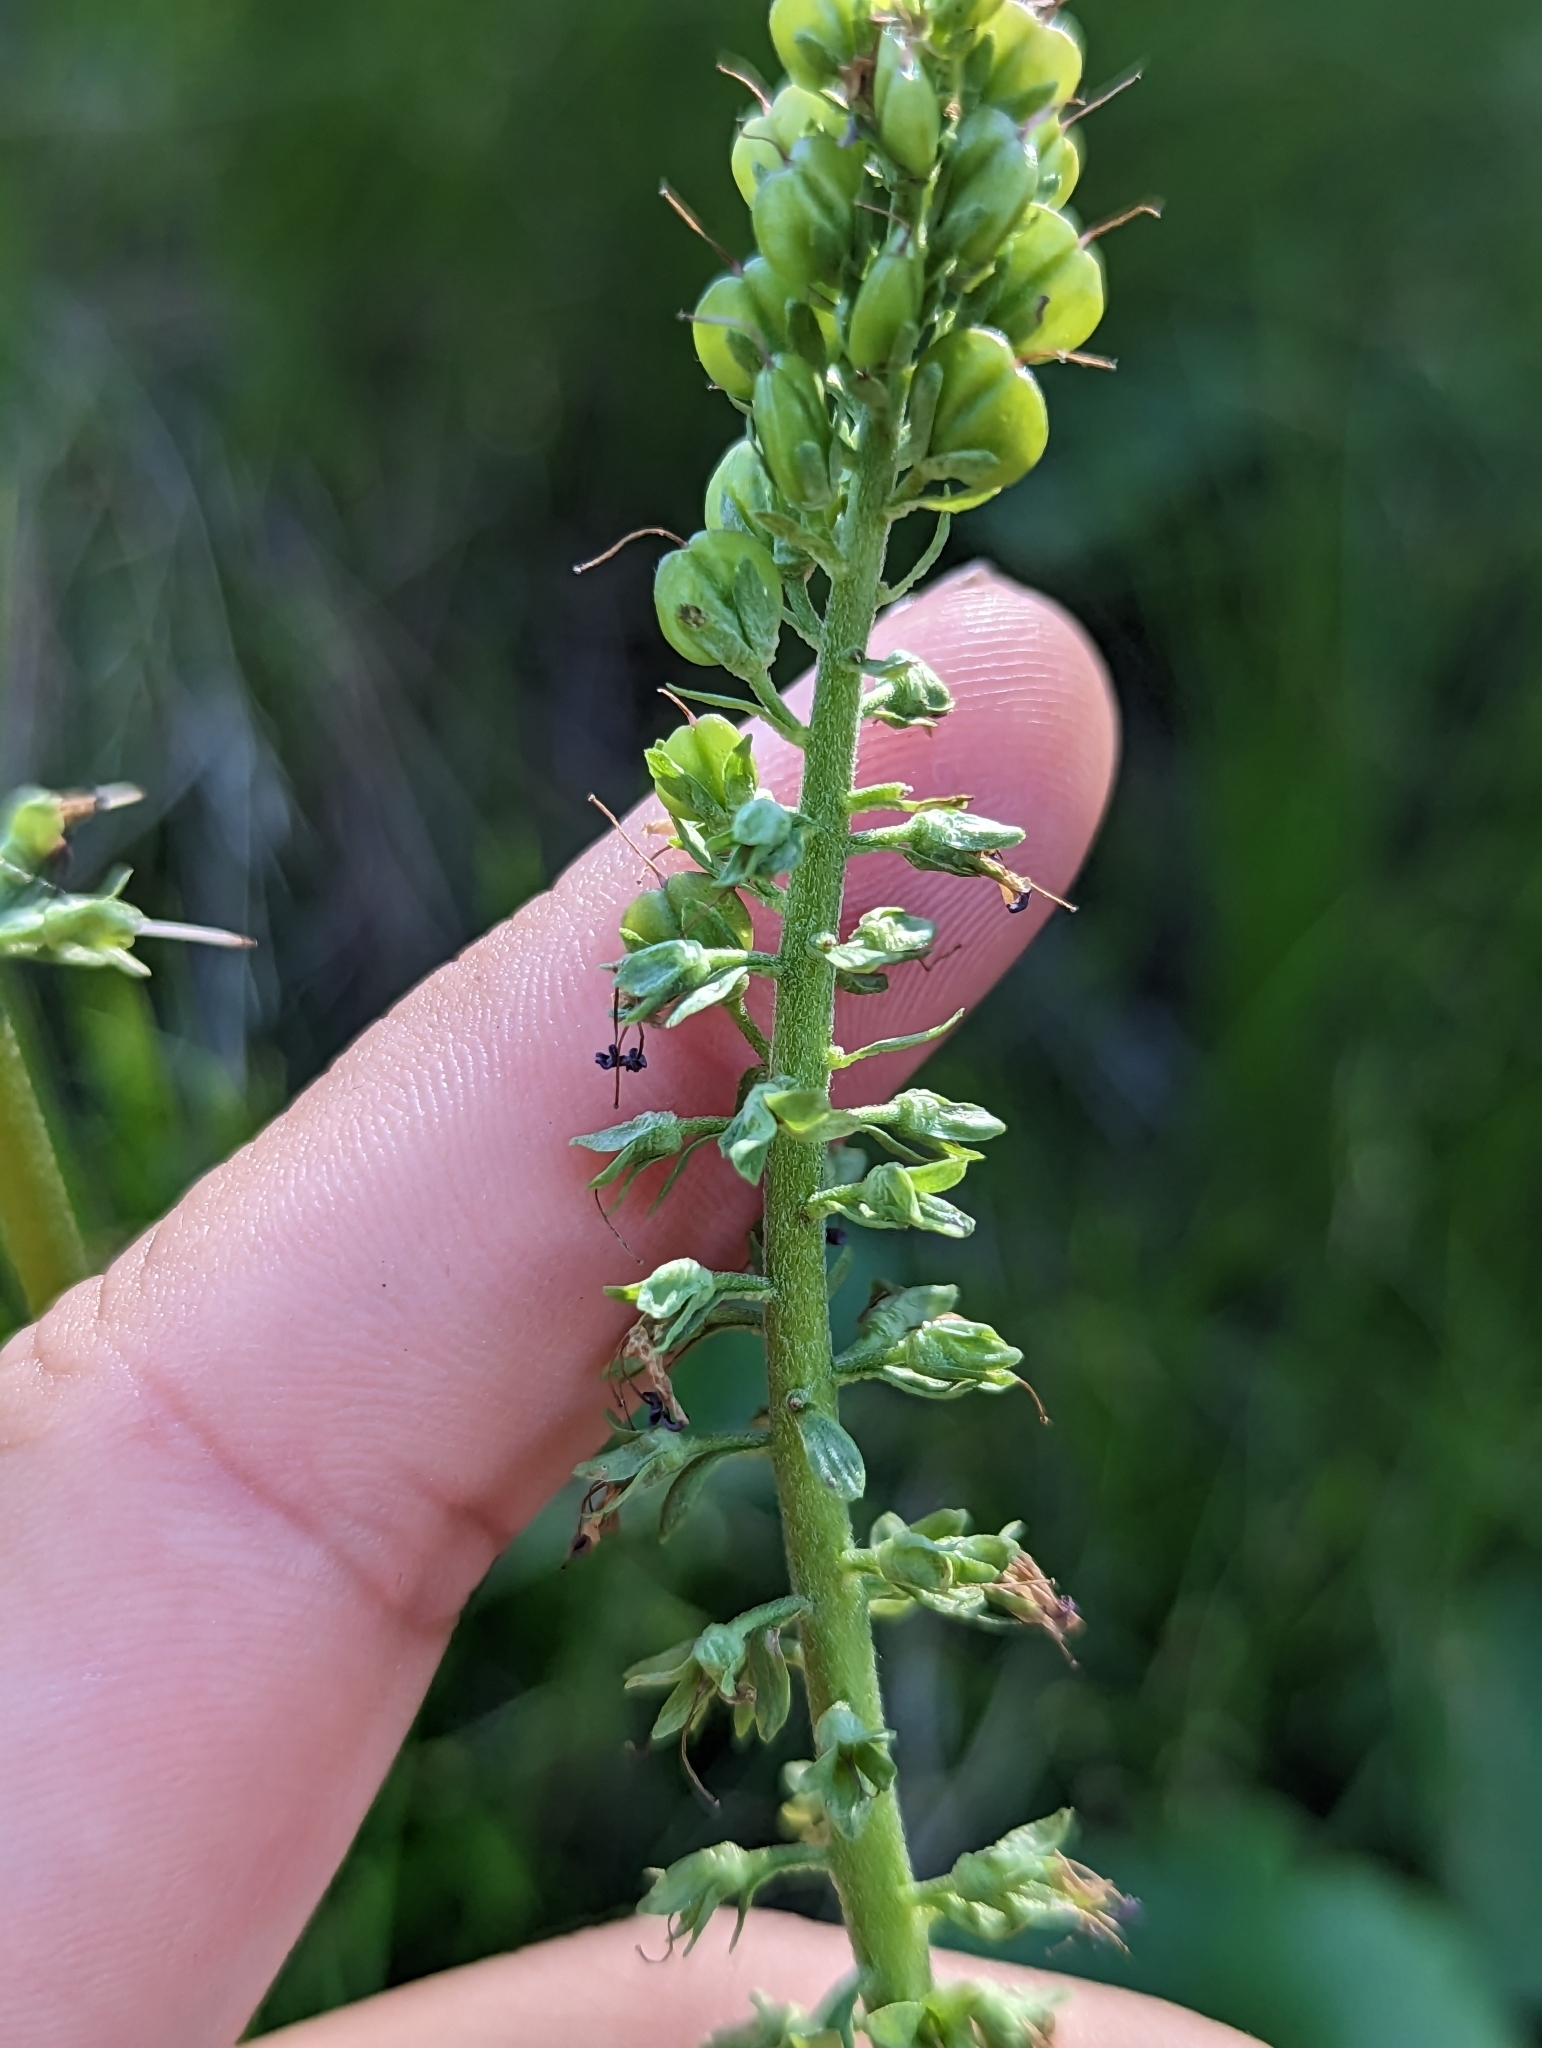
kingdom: Plantae
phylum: Tracheophyta
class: Magnoliopsida
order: Lamiales
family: Plantaginaceae
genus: Synthyris
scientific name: Synthyris missurica
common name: Kitten-tails
